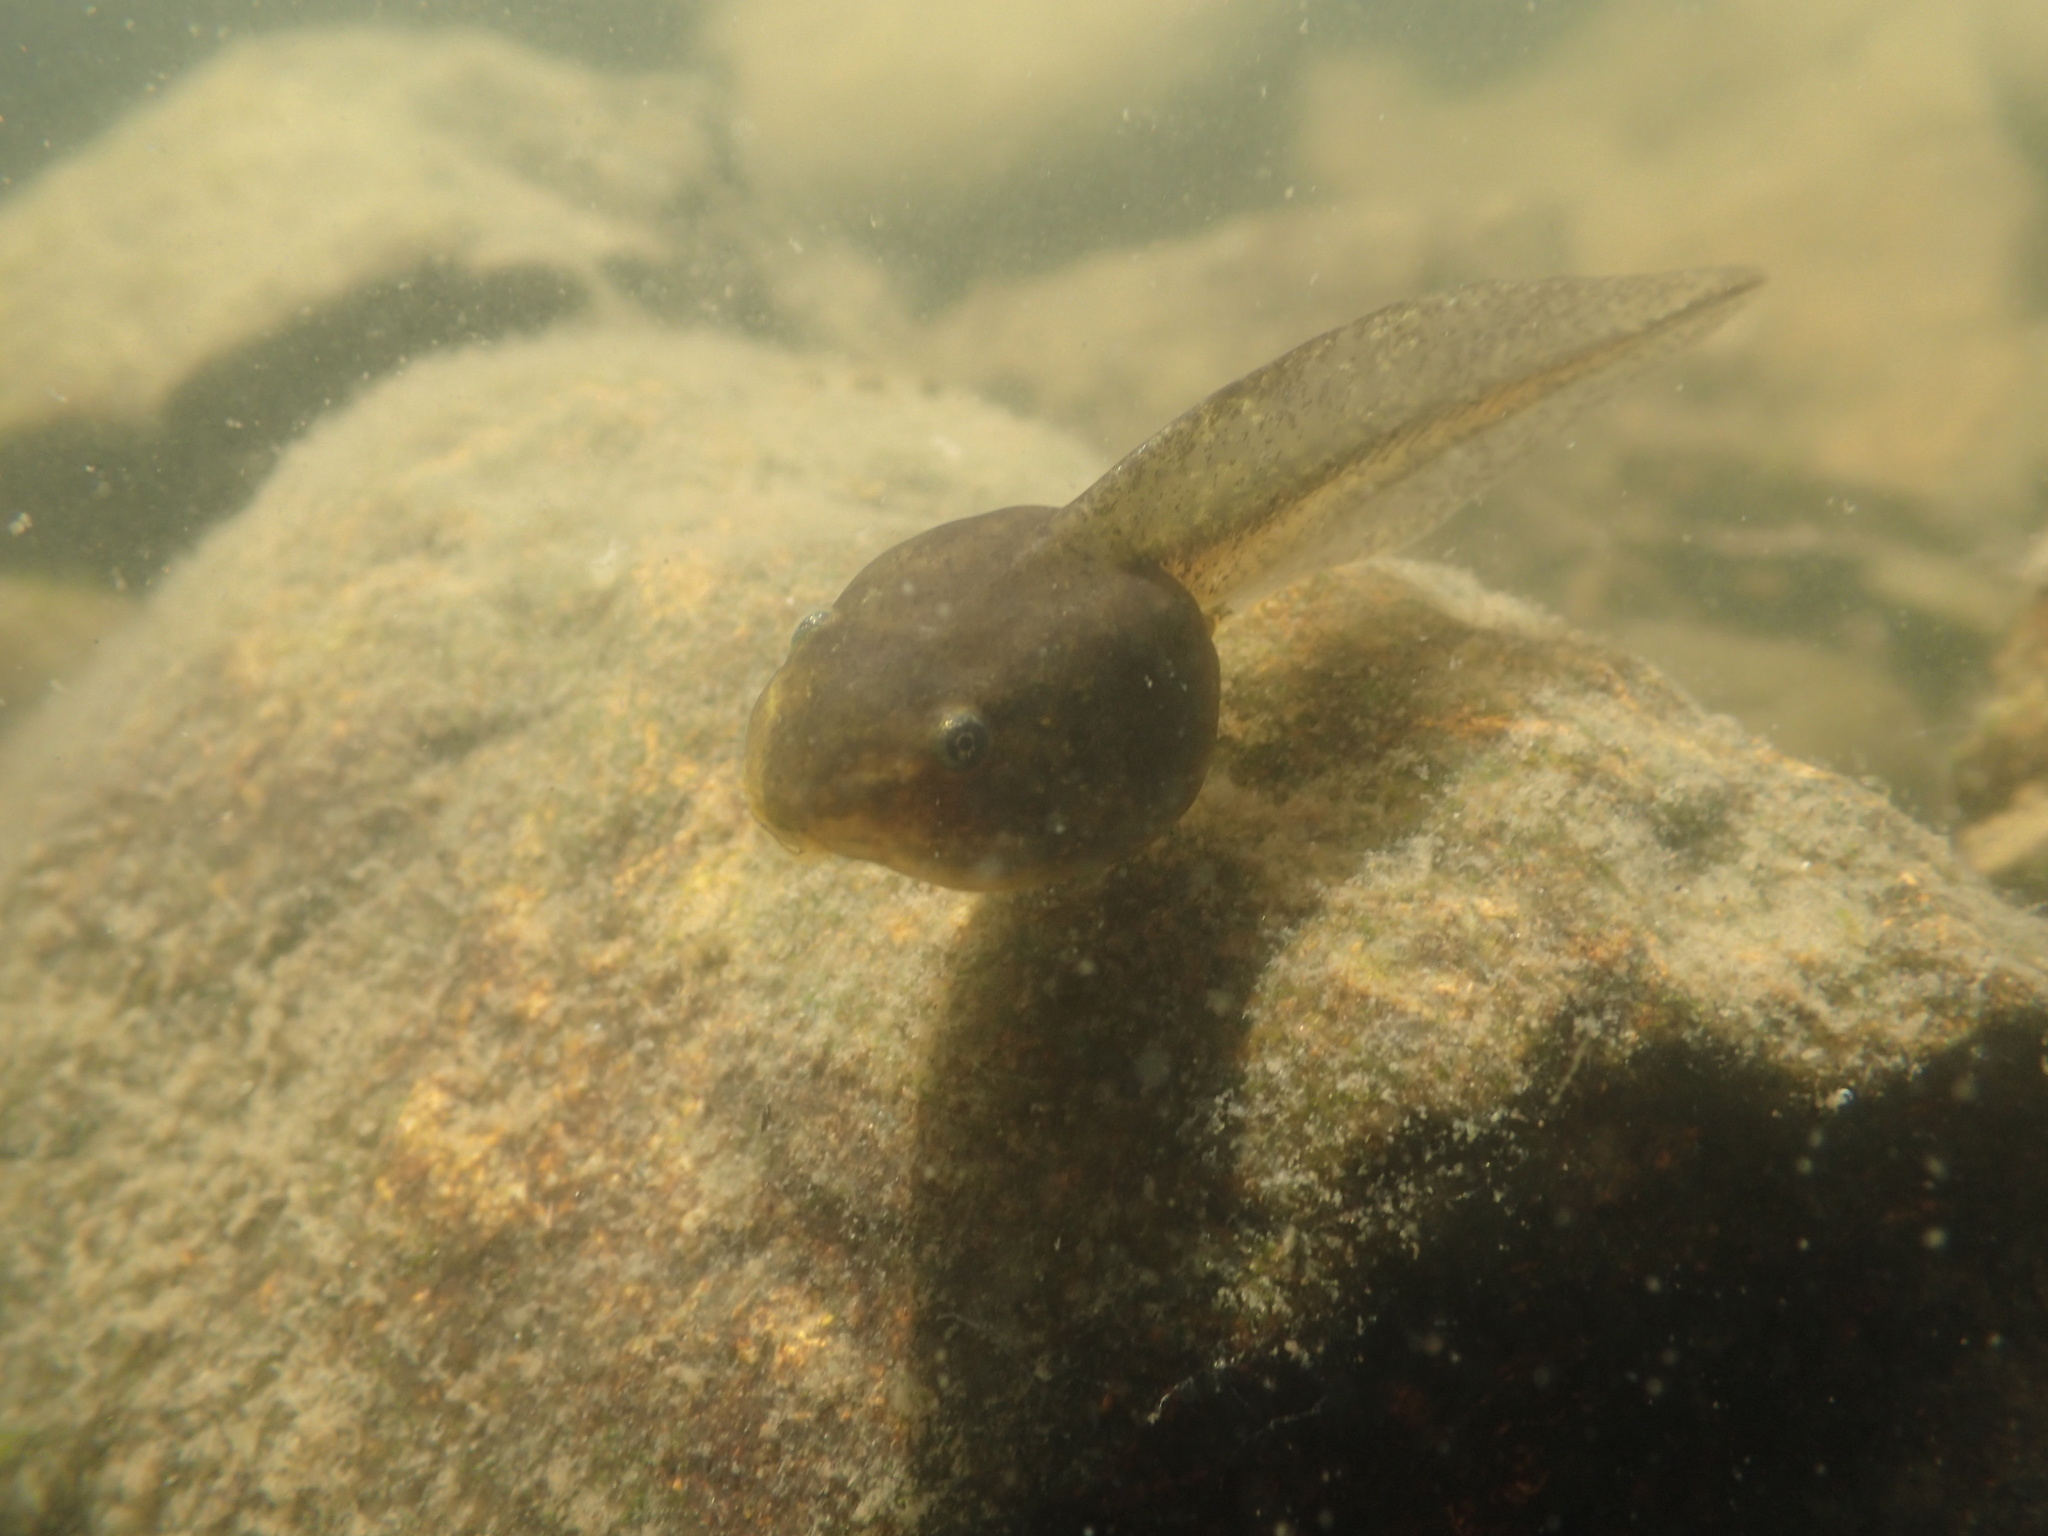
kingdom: Animalia
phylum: Chordata
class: Amphibia
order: Anura
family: Ranidae
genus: Lithobates
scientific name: Lithobates sylvaticus
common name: Wood frog
